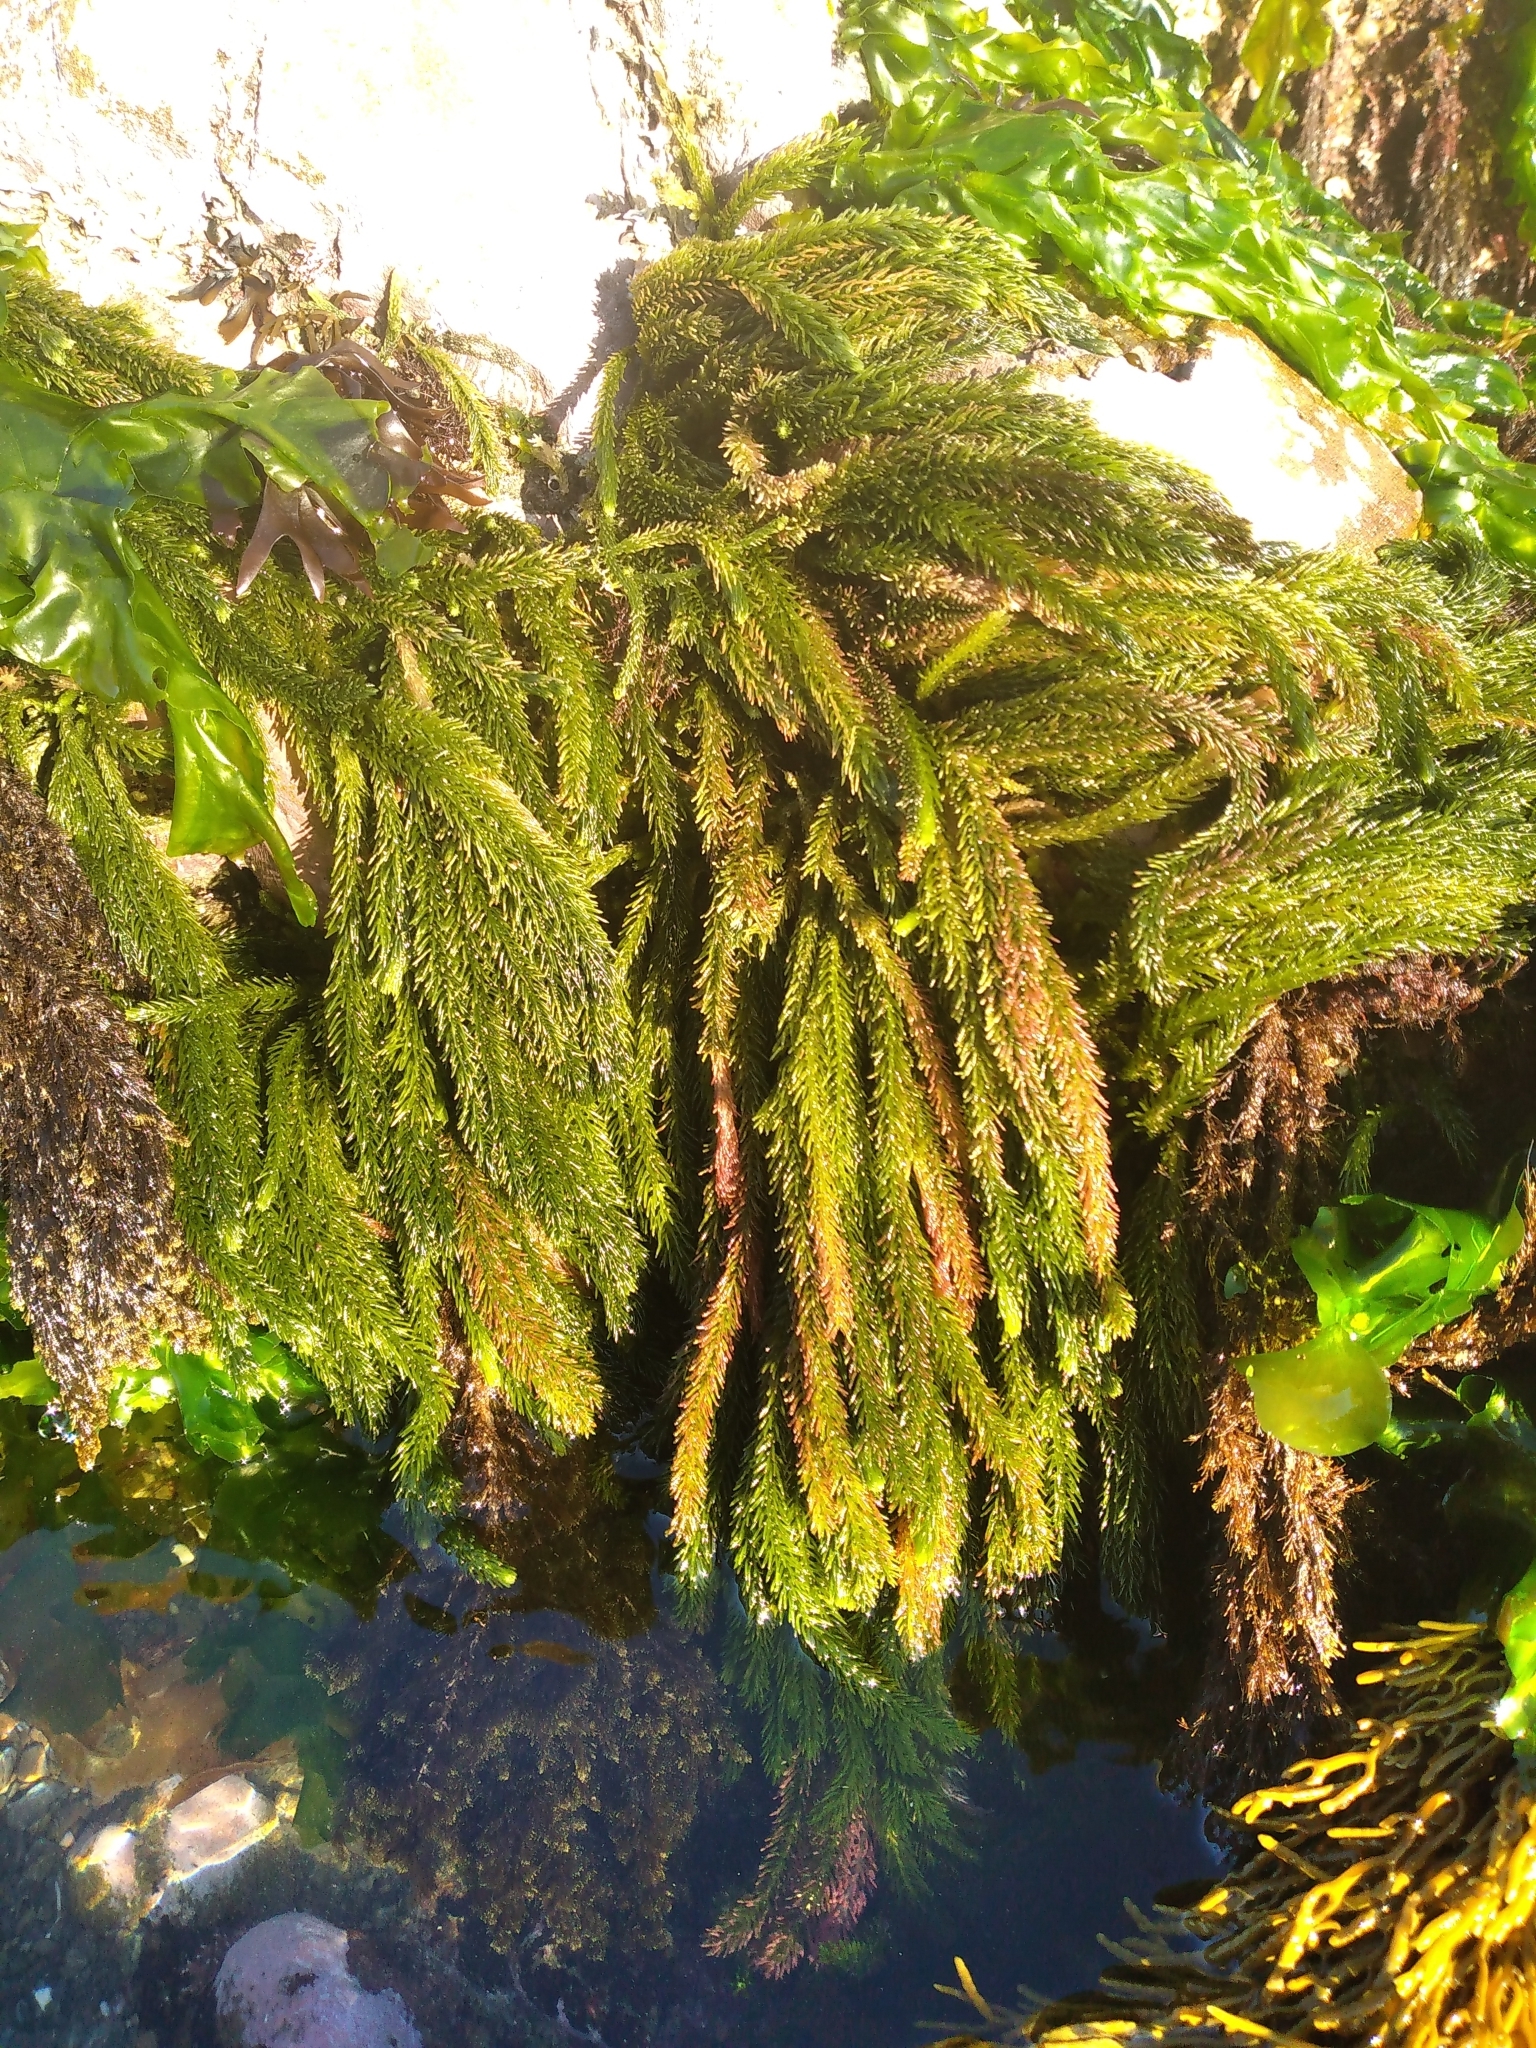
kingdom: Plantae
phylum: Chlorophyta
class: Ulvophyceae
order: Bryopsidales
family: Caulerpaceae
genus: Caulerpa
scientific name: Caulerpa brownii
